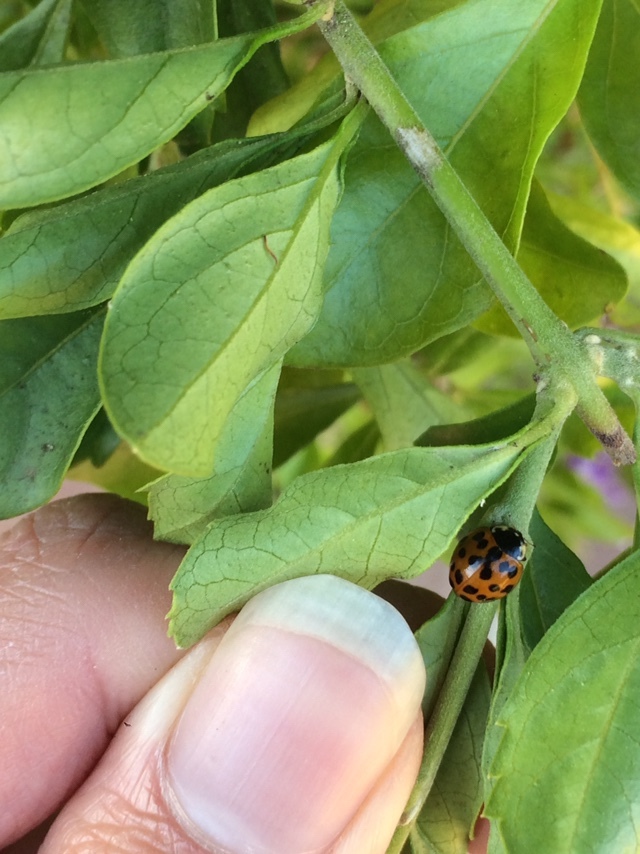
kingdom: Animalia
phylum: Arthropoda
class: Insecta
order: Coleoptera
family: Coccinellidae
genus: Harmonia
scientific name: Harmonia axyridis
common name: Harlequin ladybird
